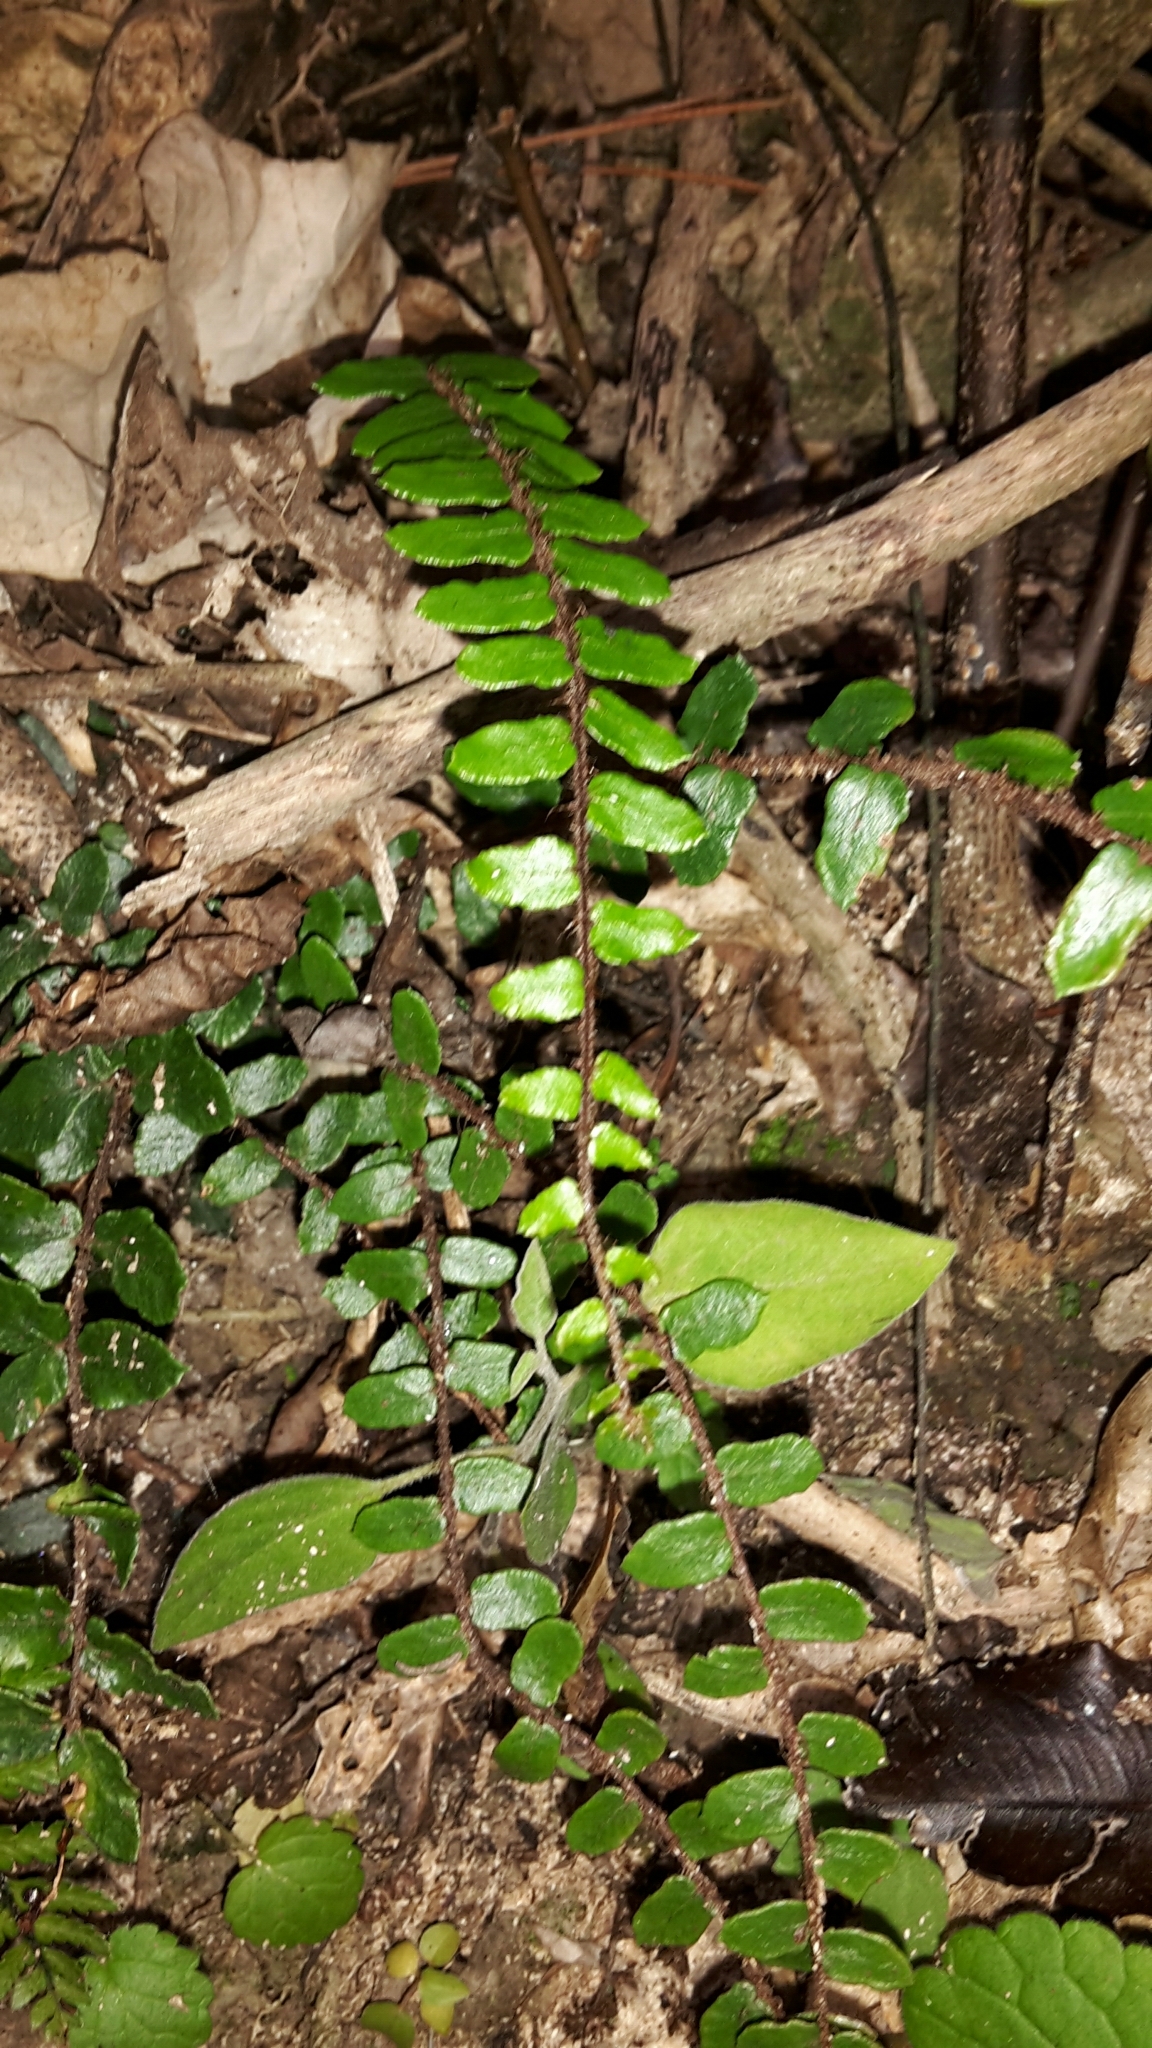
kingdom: Plantae
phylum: Tracheophyta
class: Polypodiopsida
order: Polypodiales
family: Pteridaceae
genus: Pellaea
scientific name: Pellaea rotundifolia
